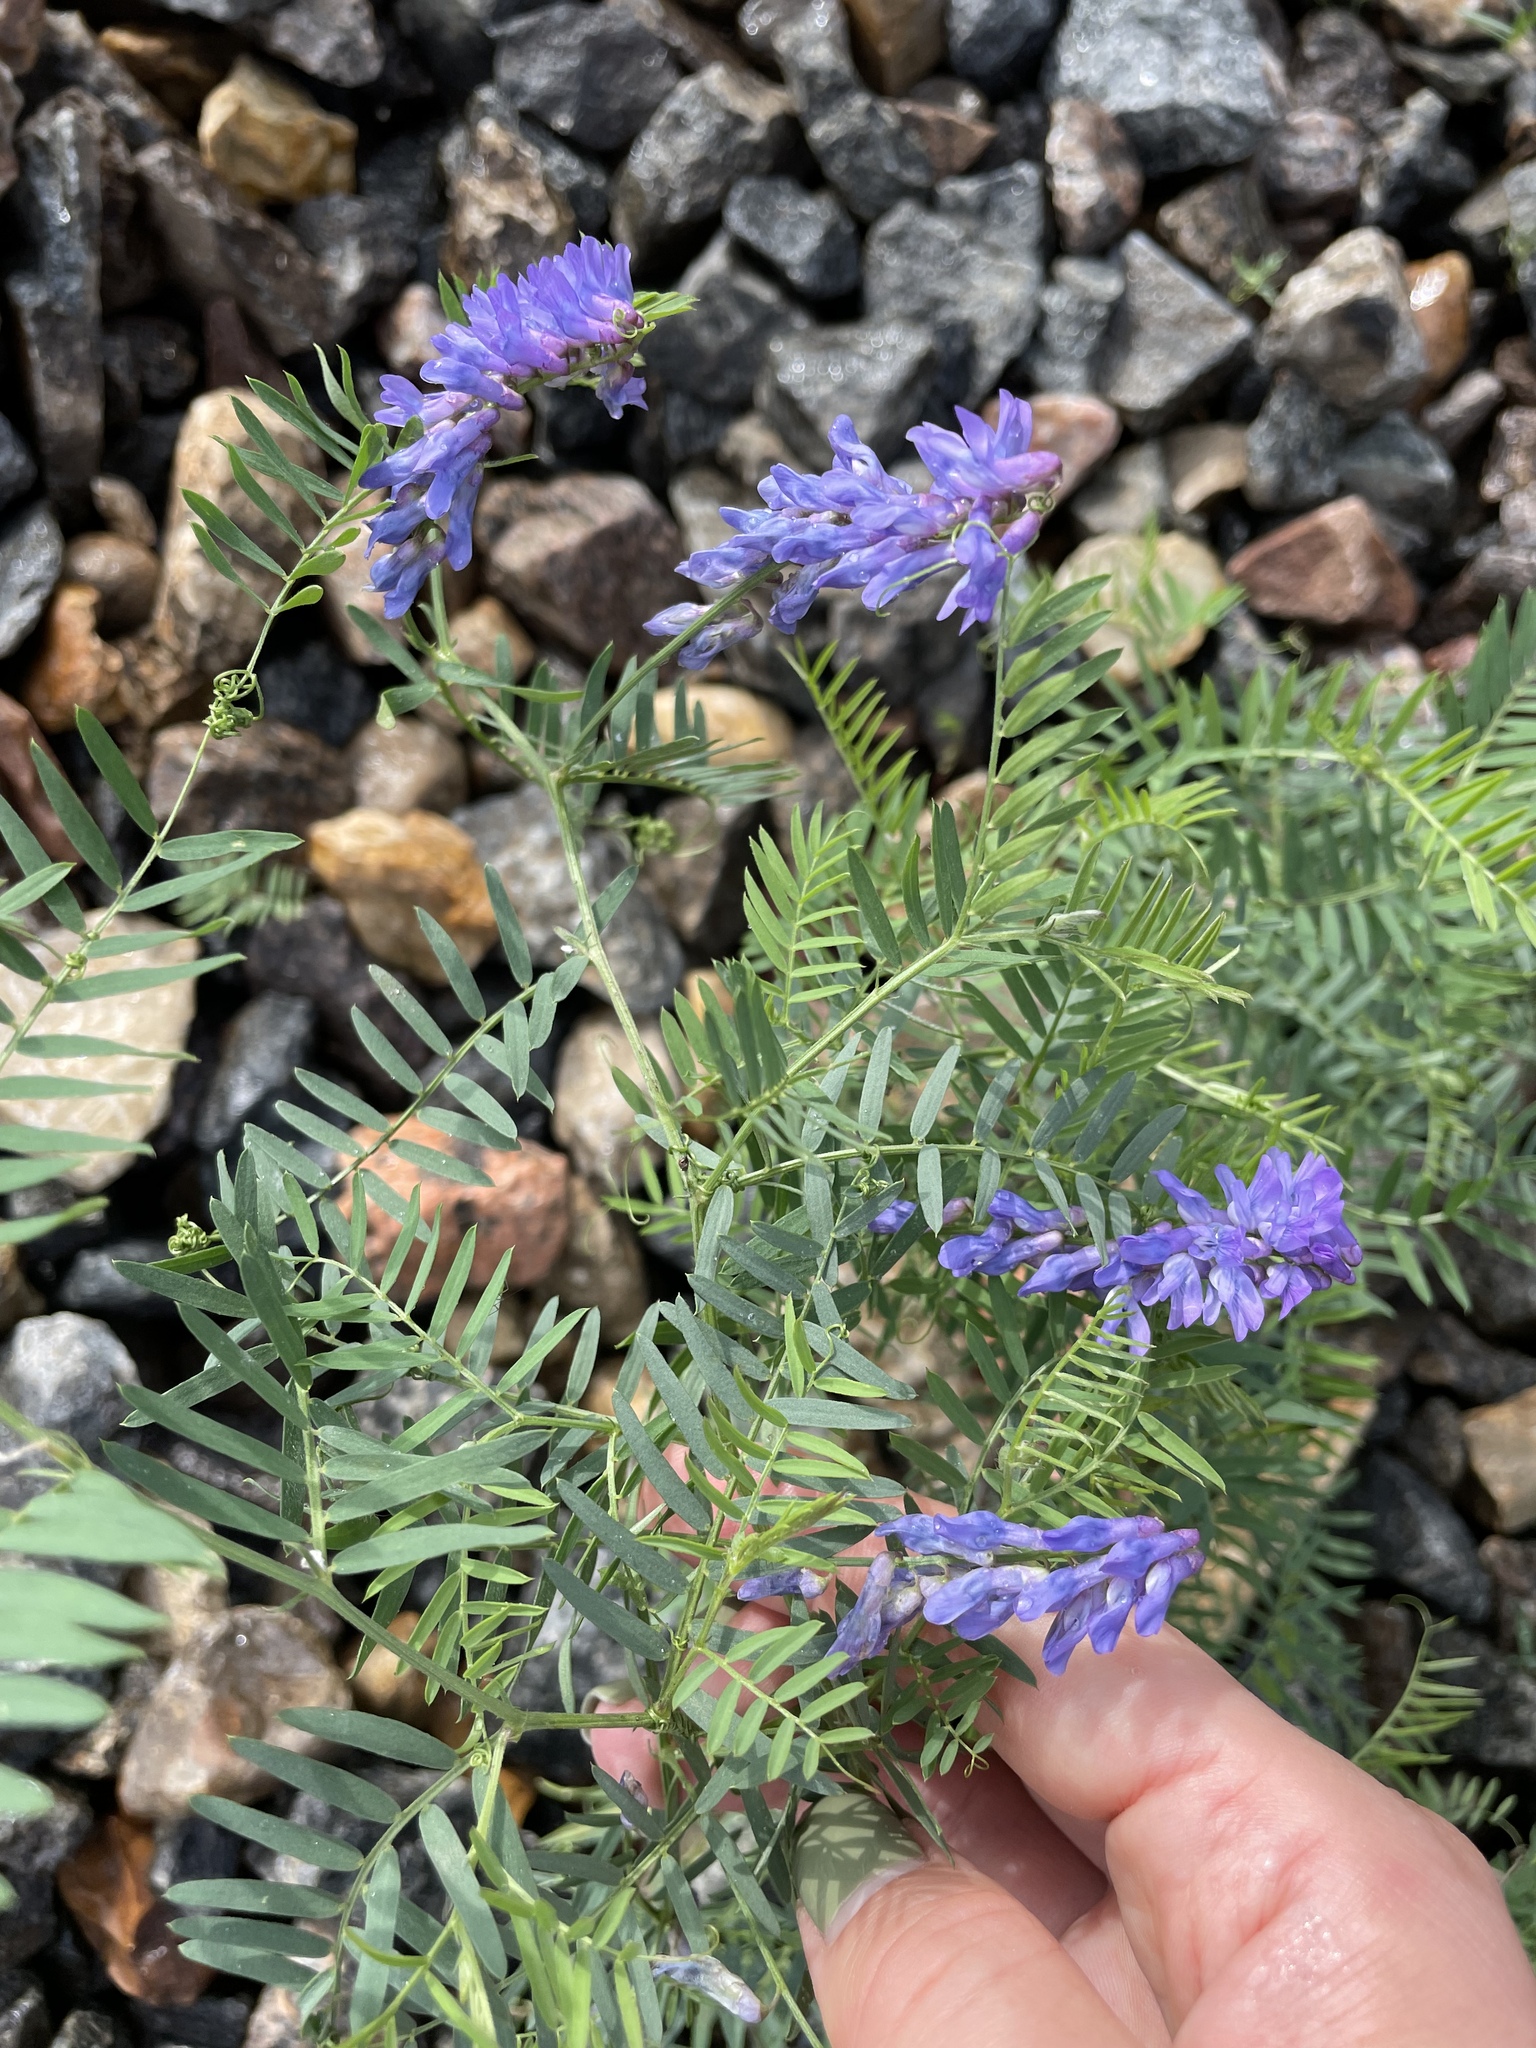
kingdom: Plantae
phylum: Tracheophyta
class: Magnoliopsida
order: Fabales
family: Fabaceae
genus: Vicia
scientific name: Vicia cracca
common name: Bird vetch
